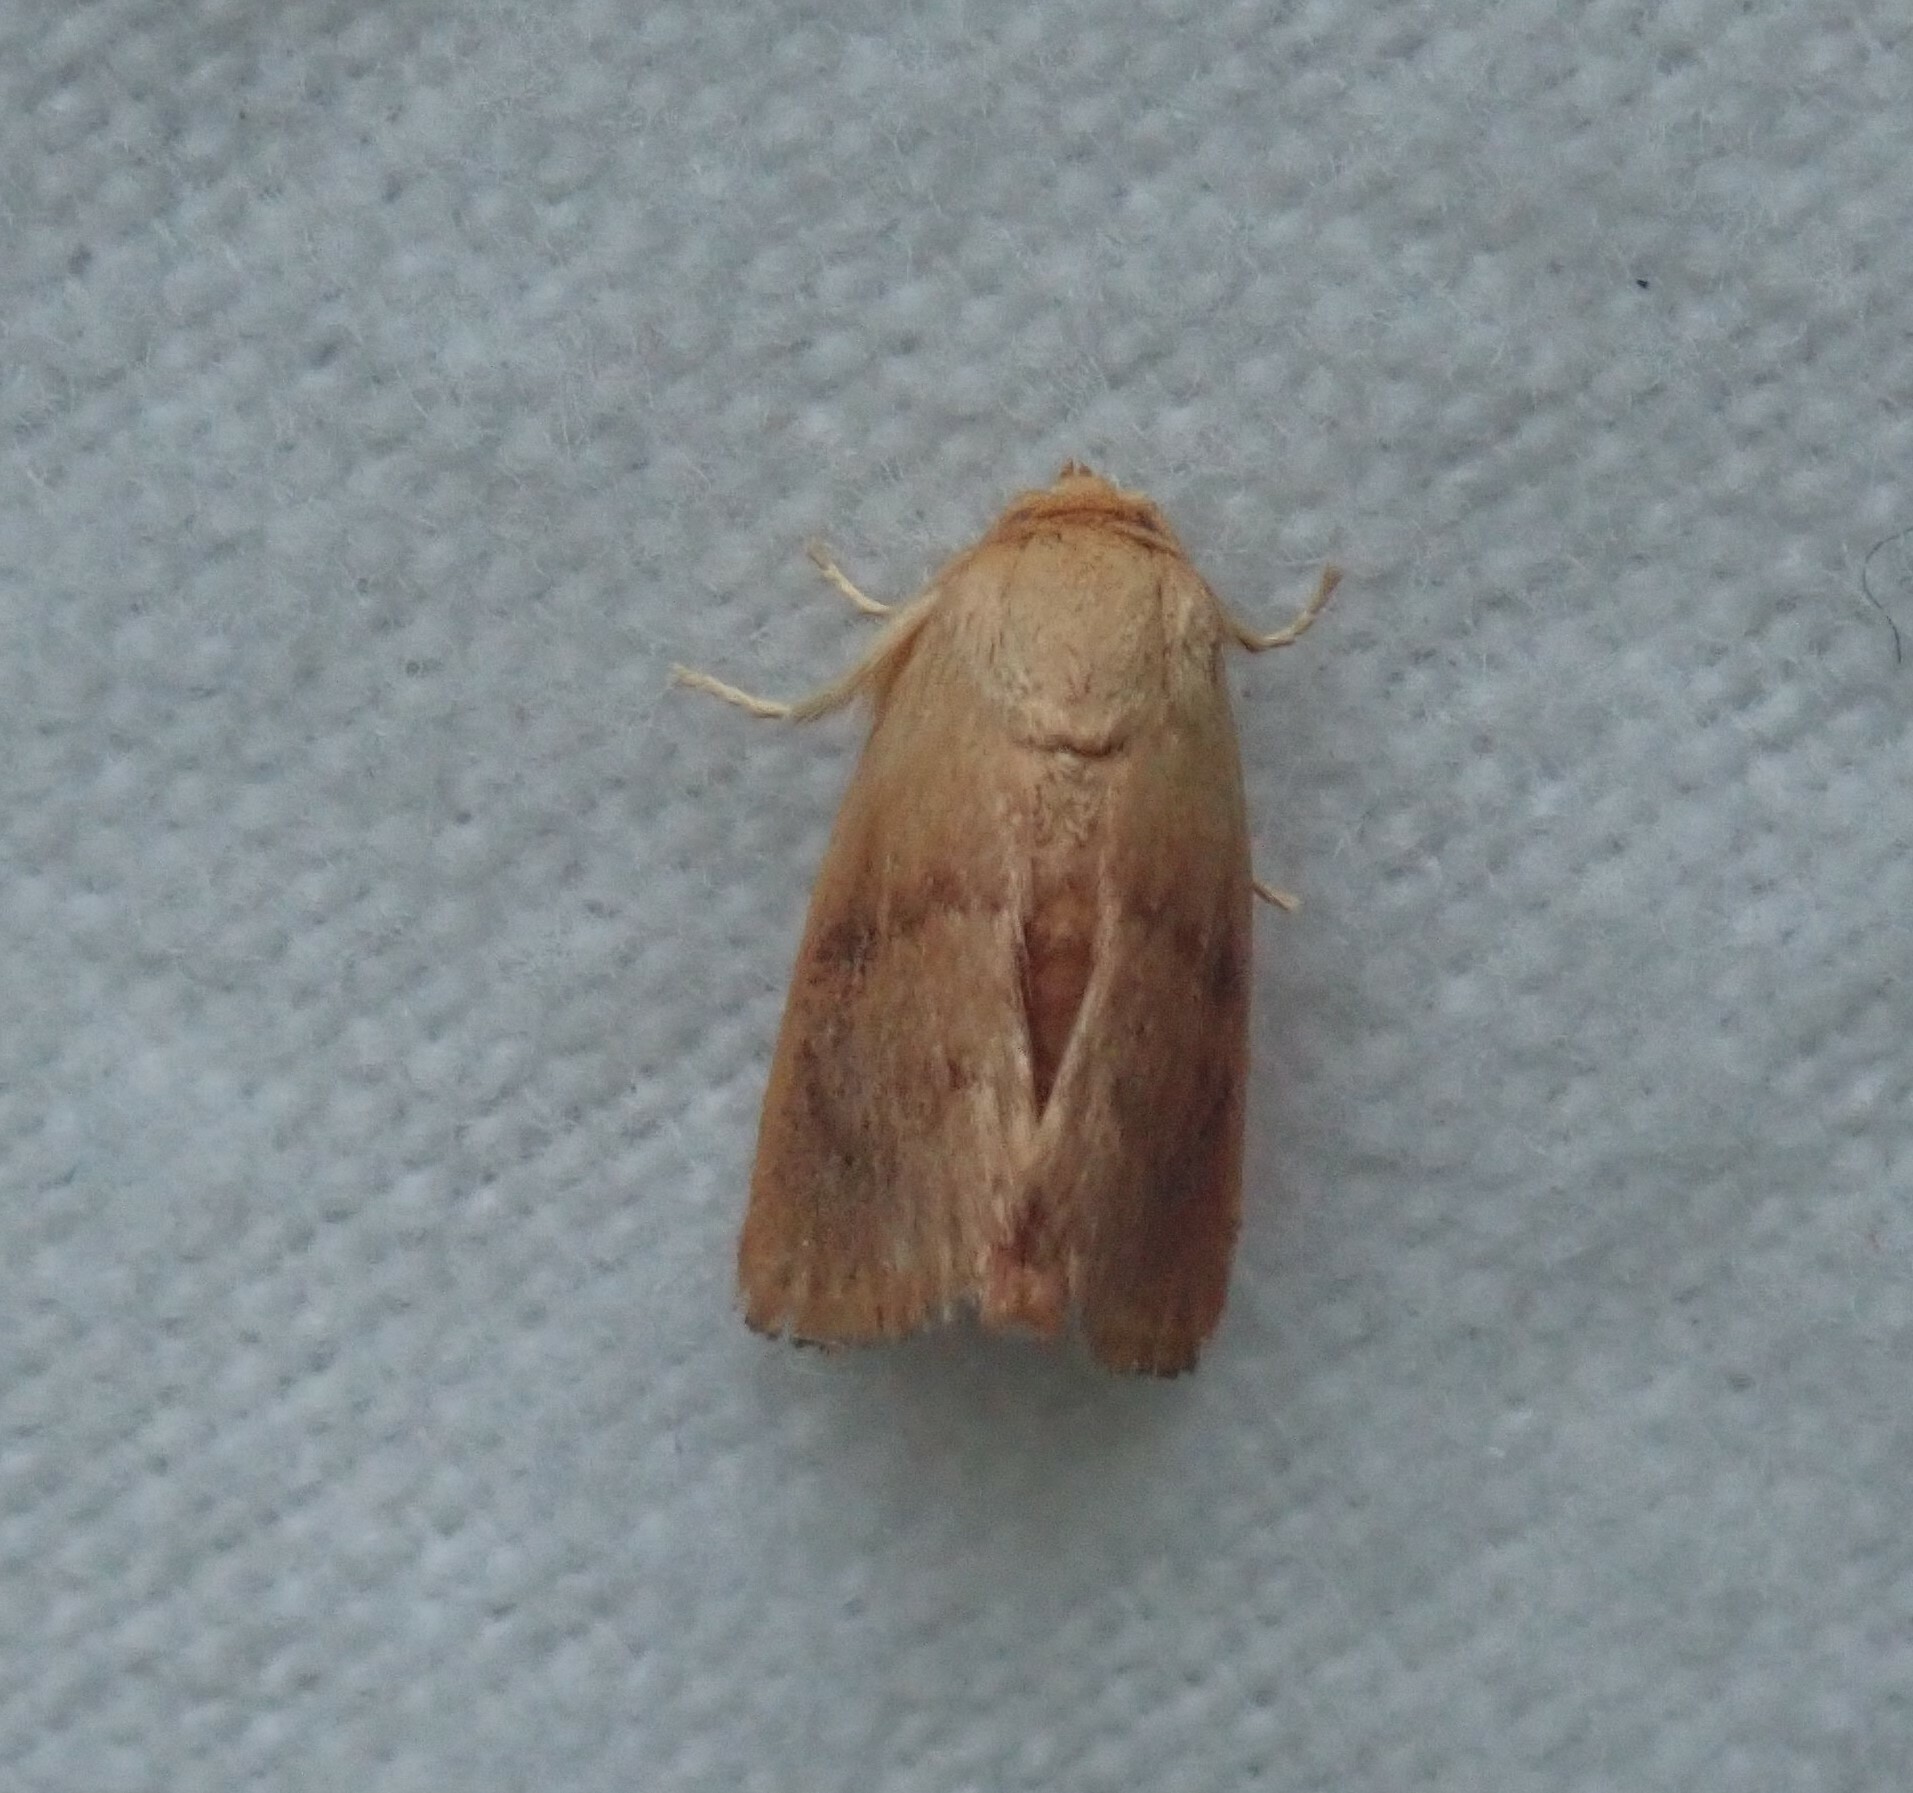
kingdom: Animalia
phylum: Arthropoda
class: Insecta
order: Lepidoptera
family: Limacodidae
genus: Tortricidia
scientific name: Tortricidia flexuosa
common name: Abbreviated button slug moth
